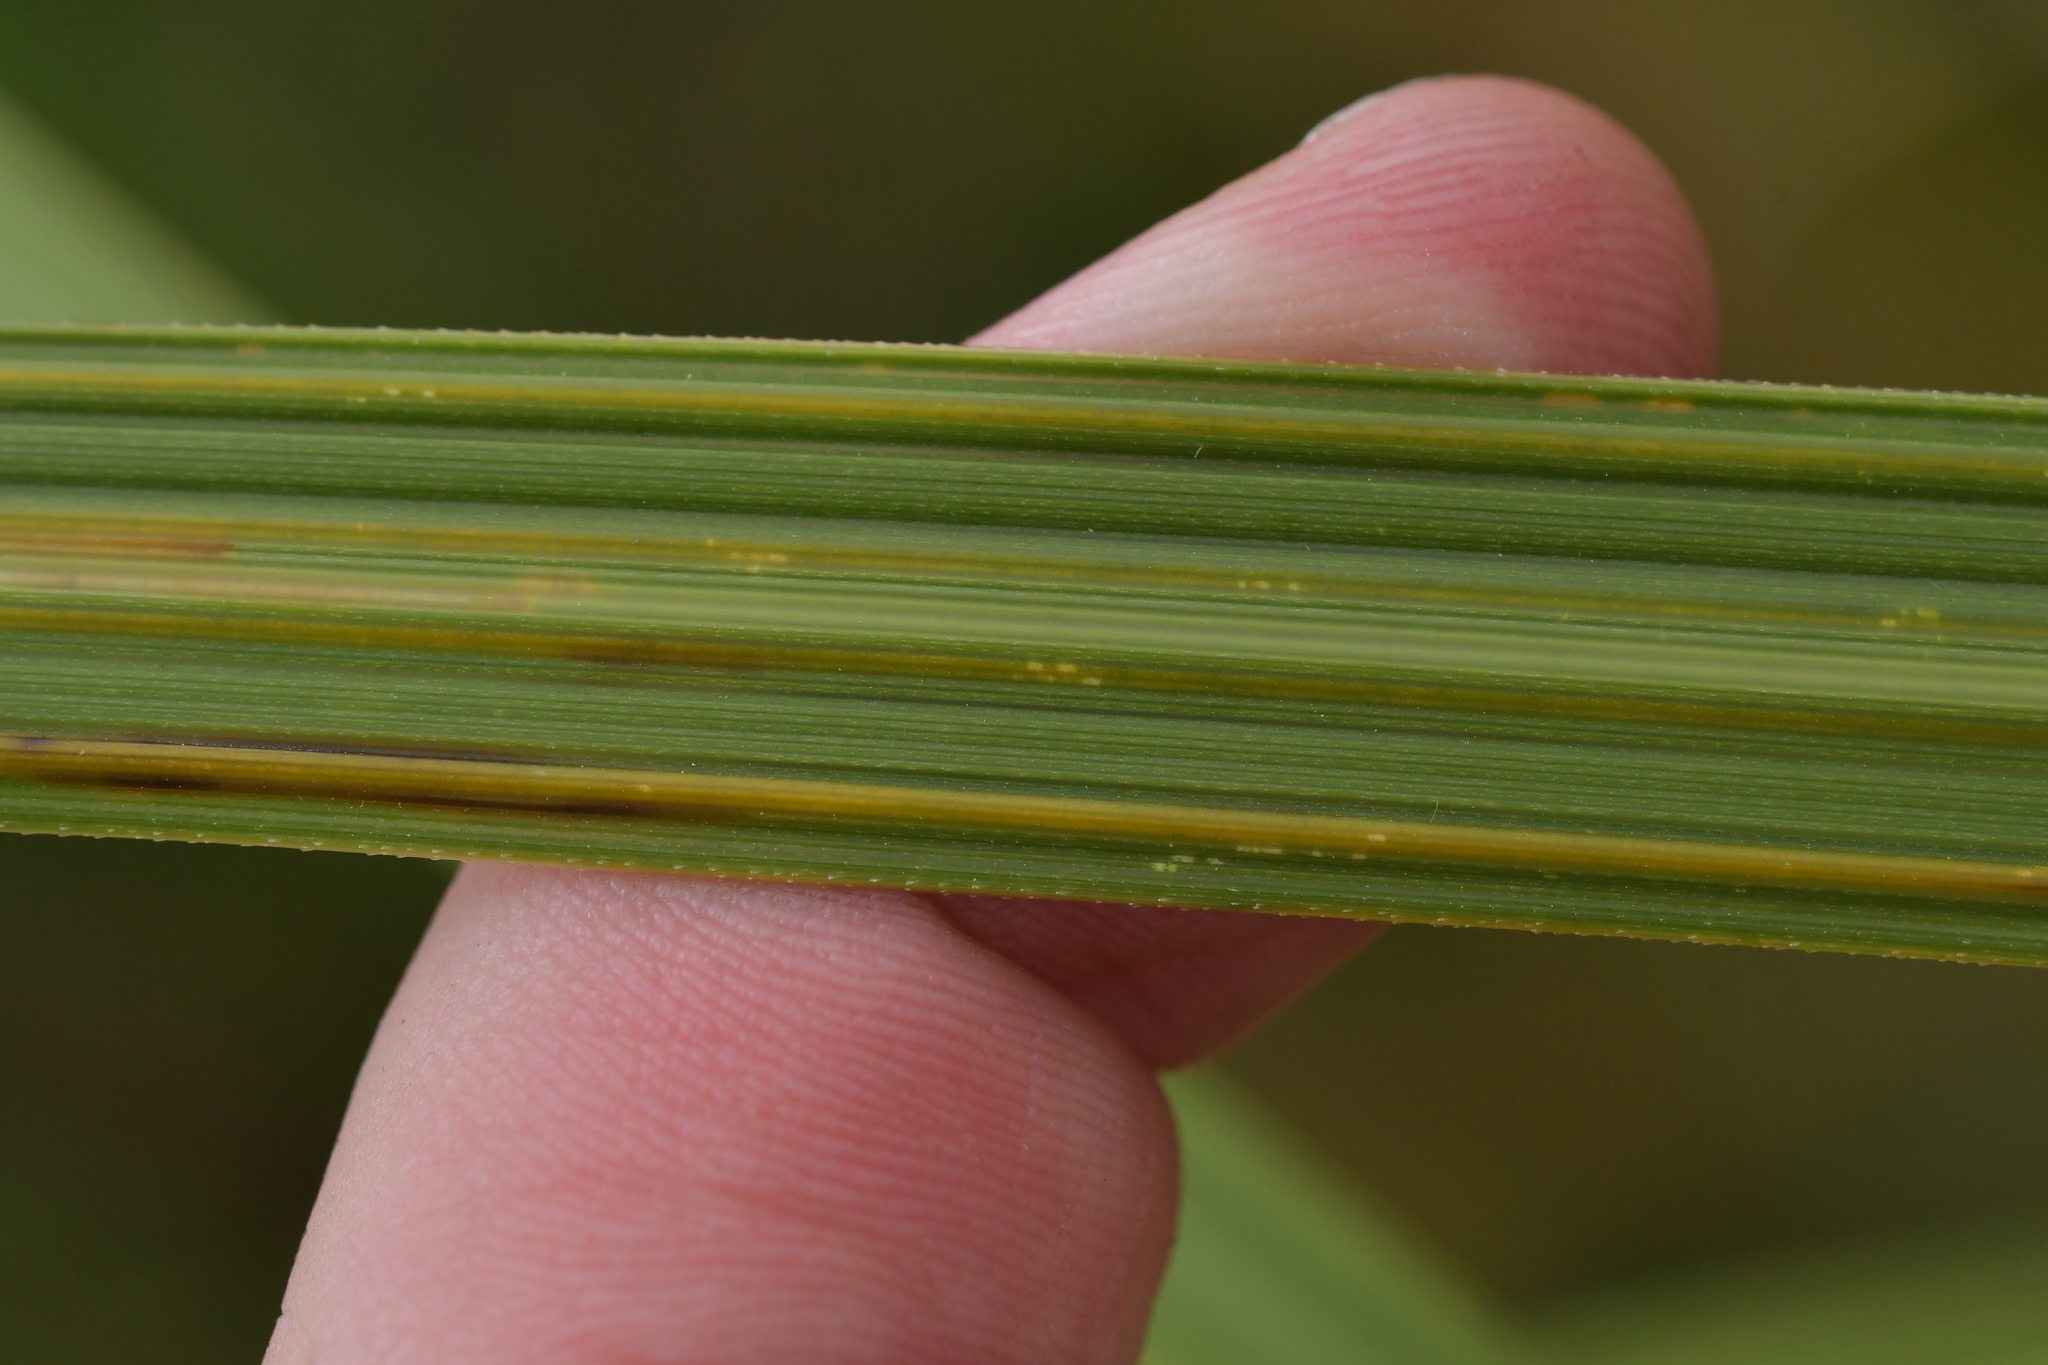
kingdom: Plantae
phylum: Tracheophyta
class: Liliopsida
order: Poales
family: Poaceae
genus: Austroderia
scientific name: Austroderia toetoe
